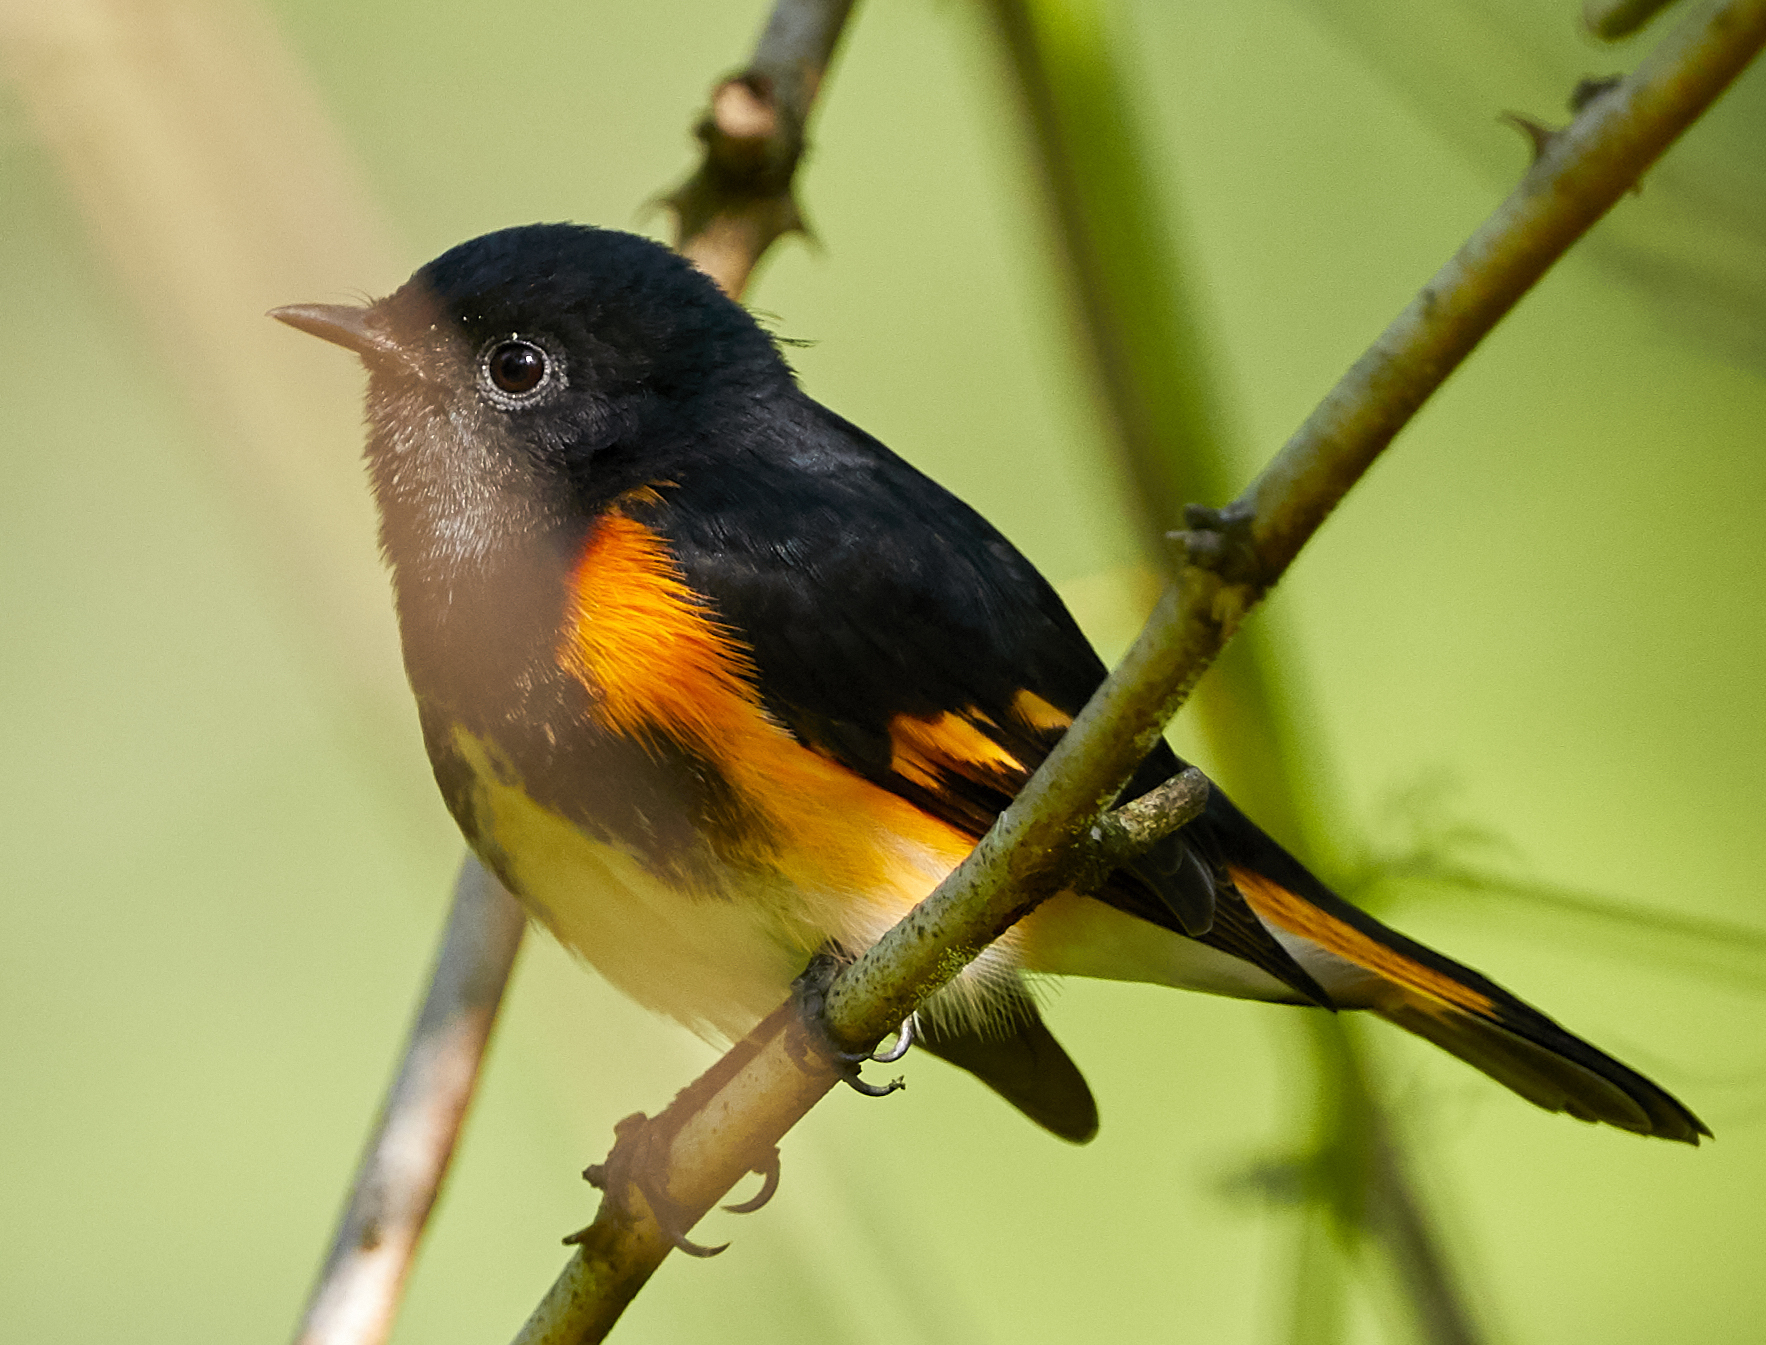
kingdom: Animalia
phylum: Chordata
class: Aves
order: Passeriformes
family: Parulidae
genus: Setophaga
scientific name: Setophaga ruticilla
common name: American redstart
